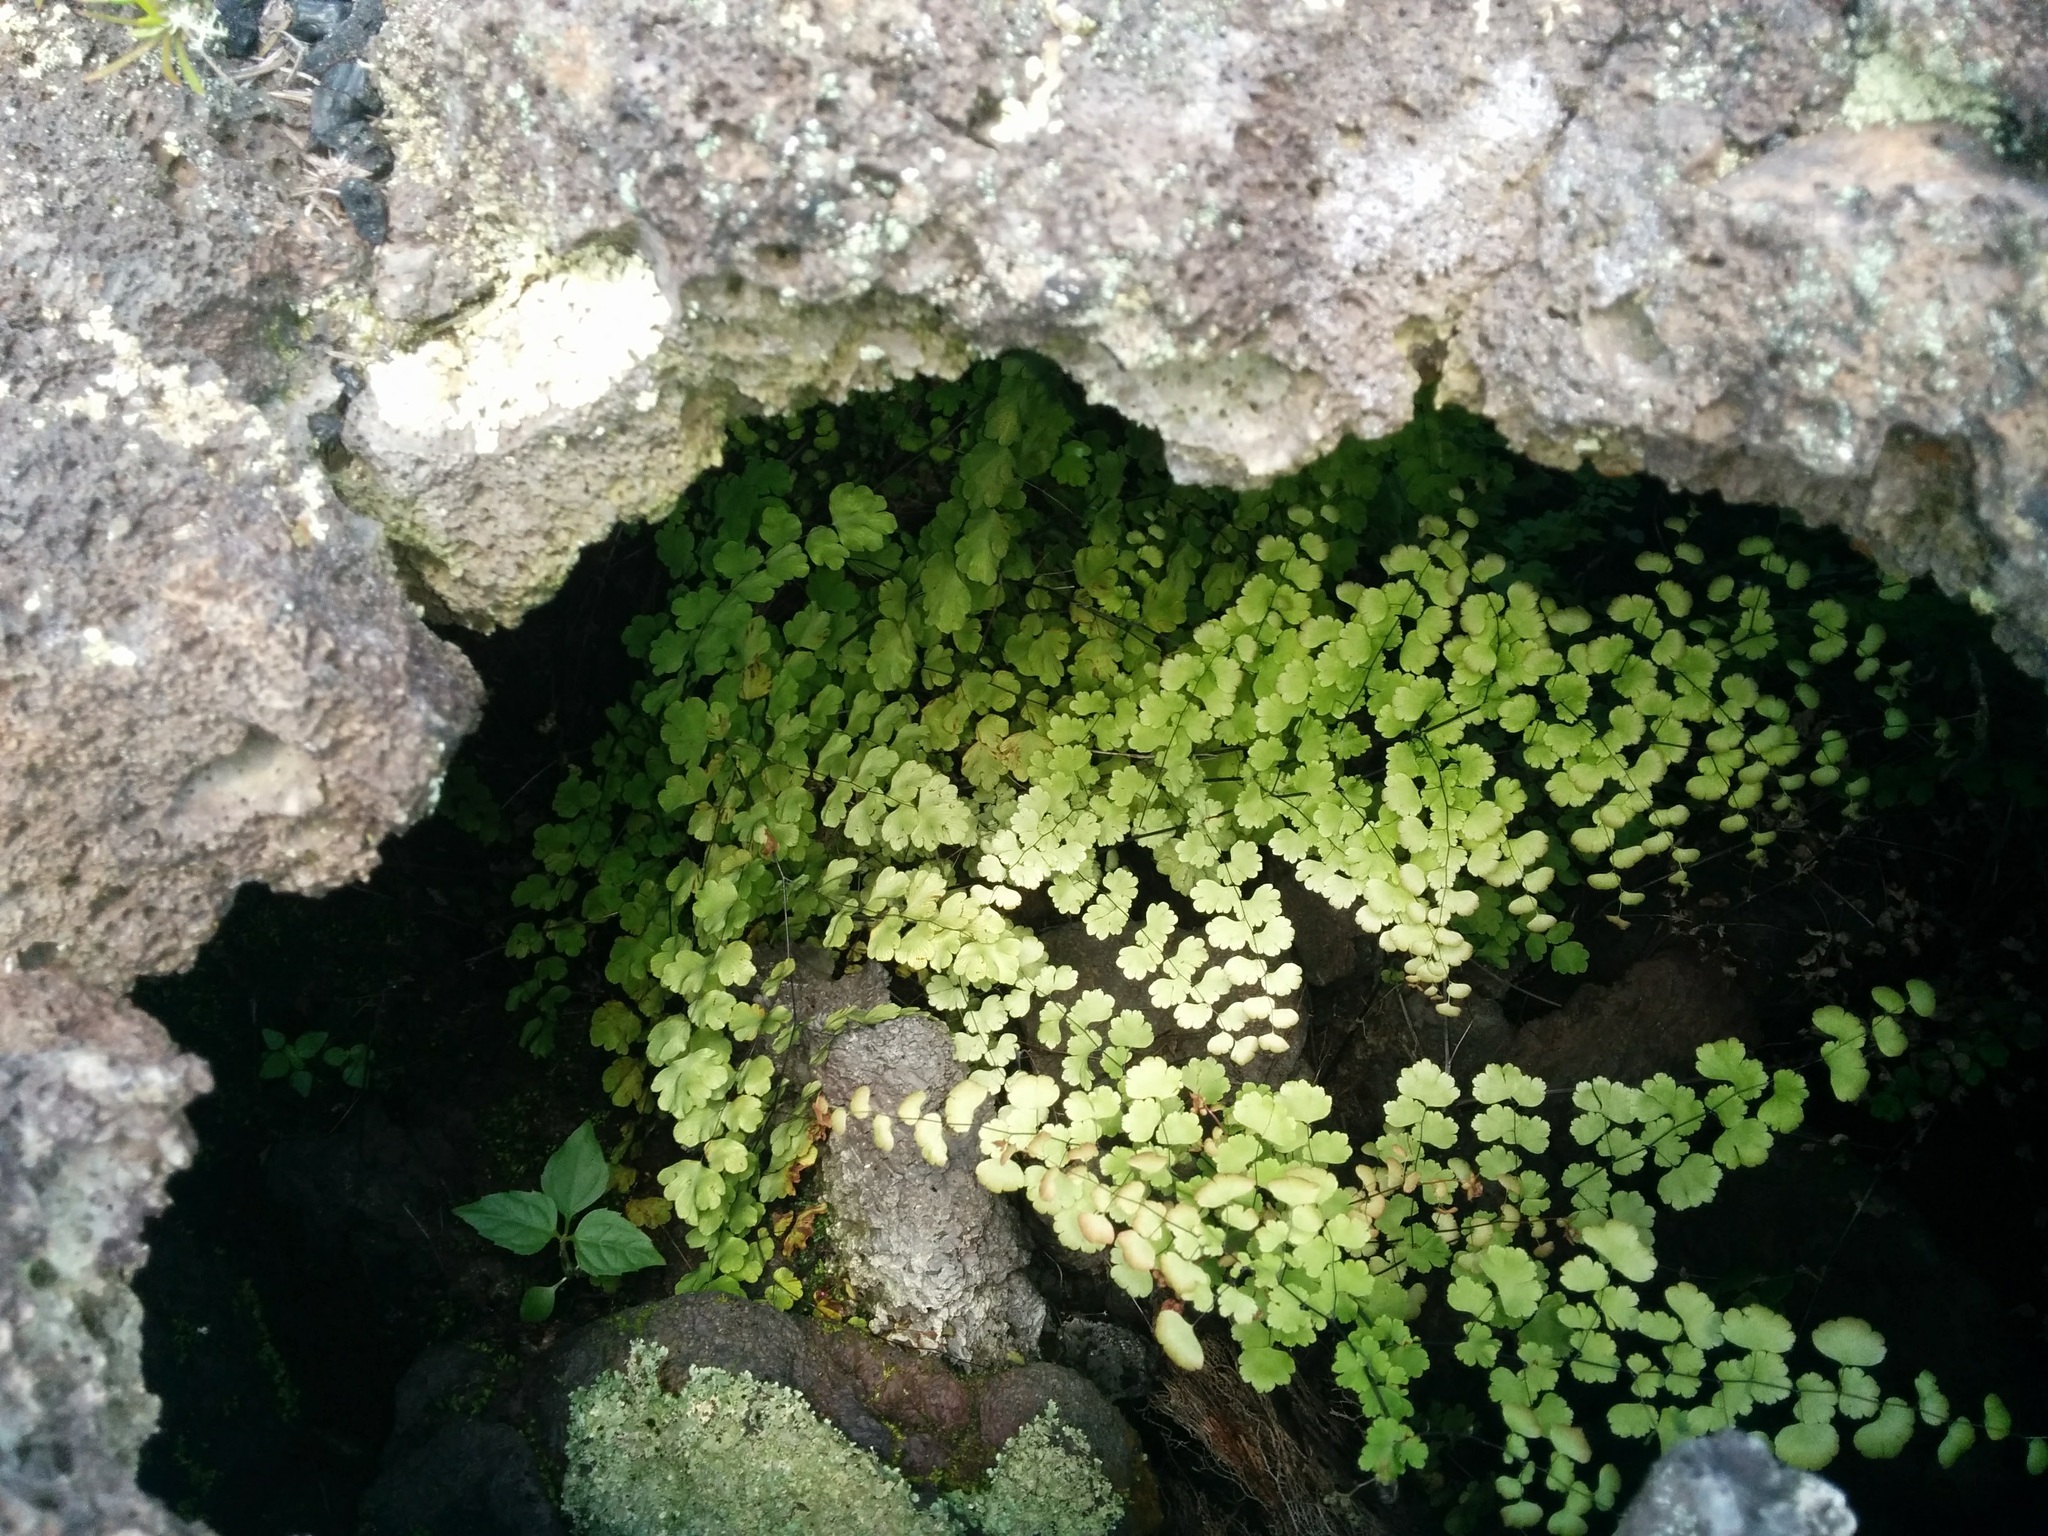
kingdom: Plantae
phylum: Tracheophyta
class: Polypodiopsida
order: Polypodiales
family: Pteridaceae
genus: Adiantum
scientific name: Adiantum concinnum
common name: Brittle maidenhair fern
